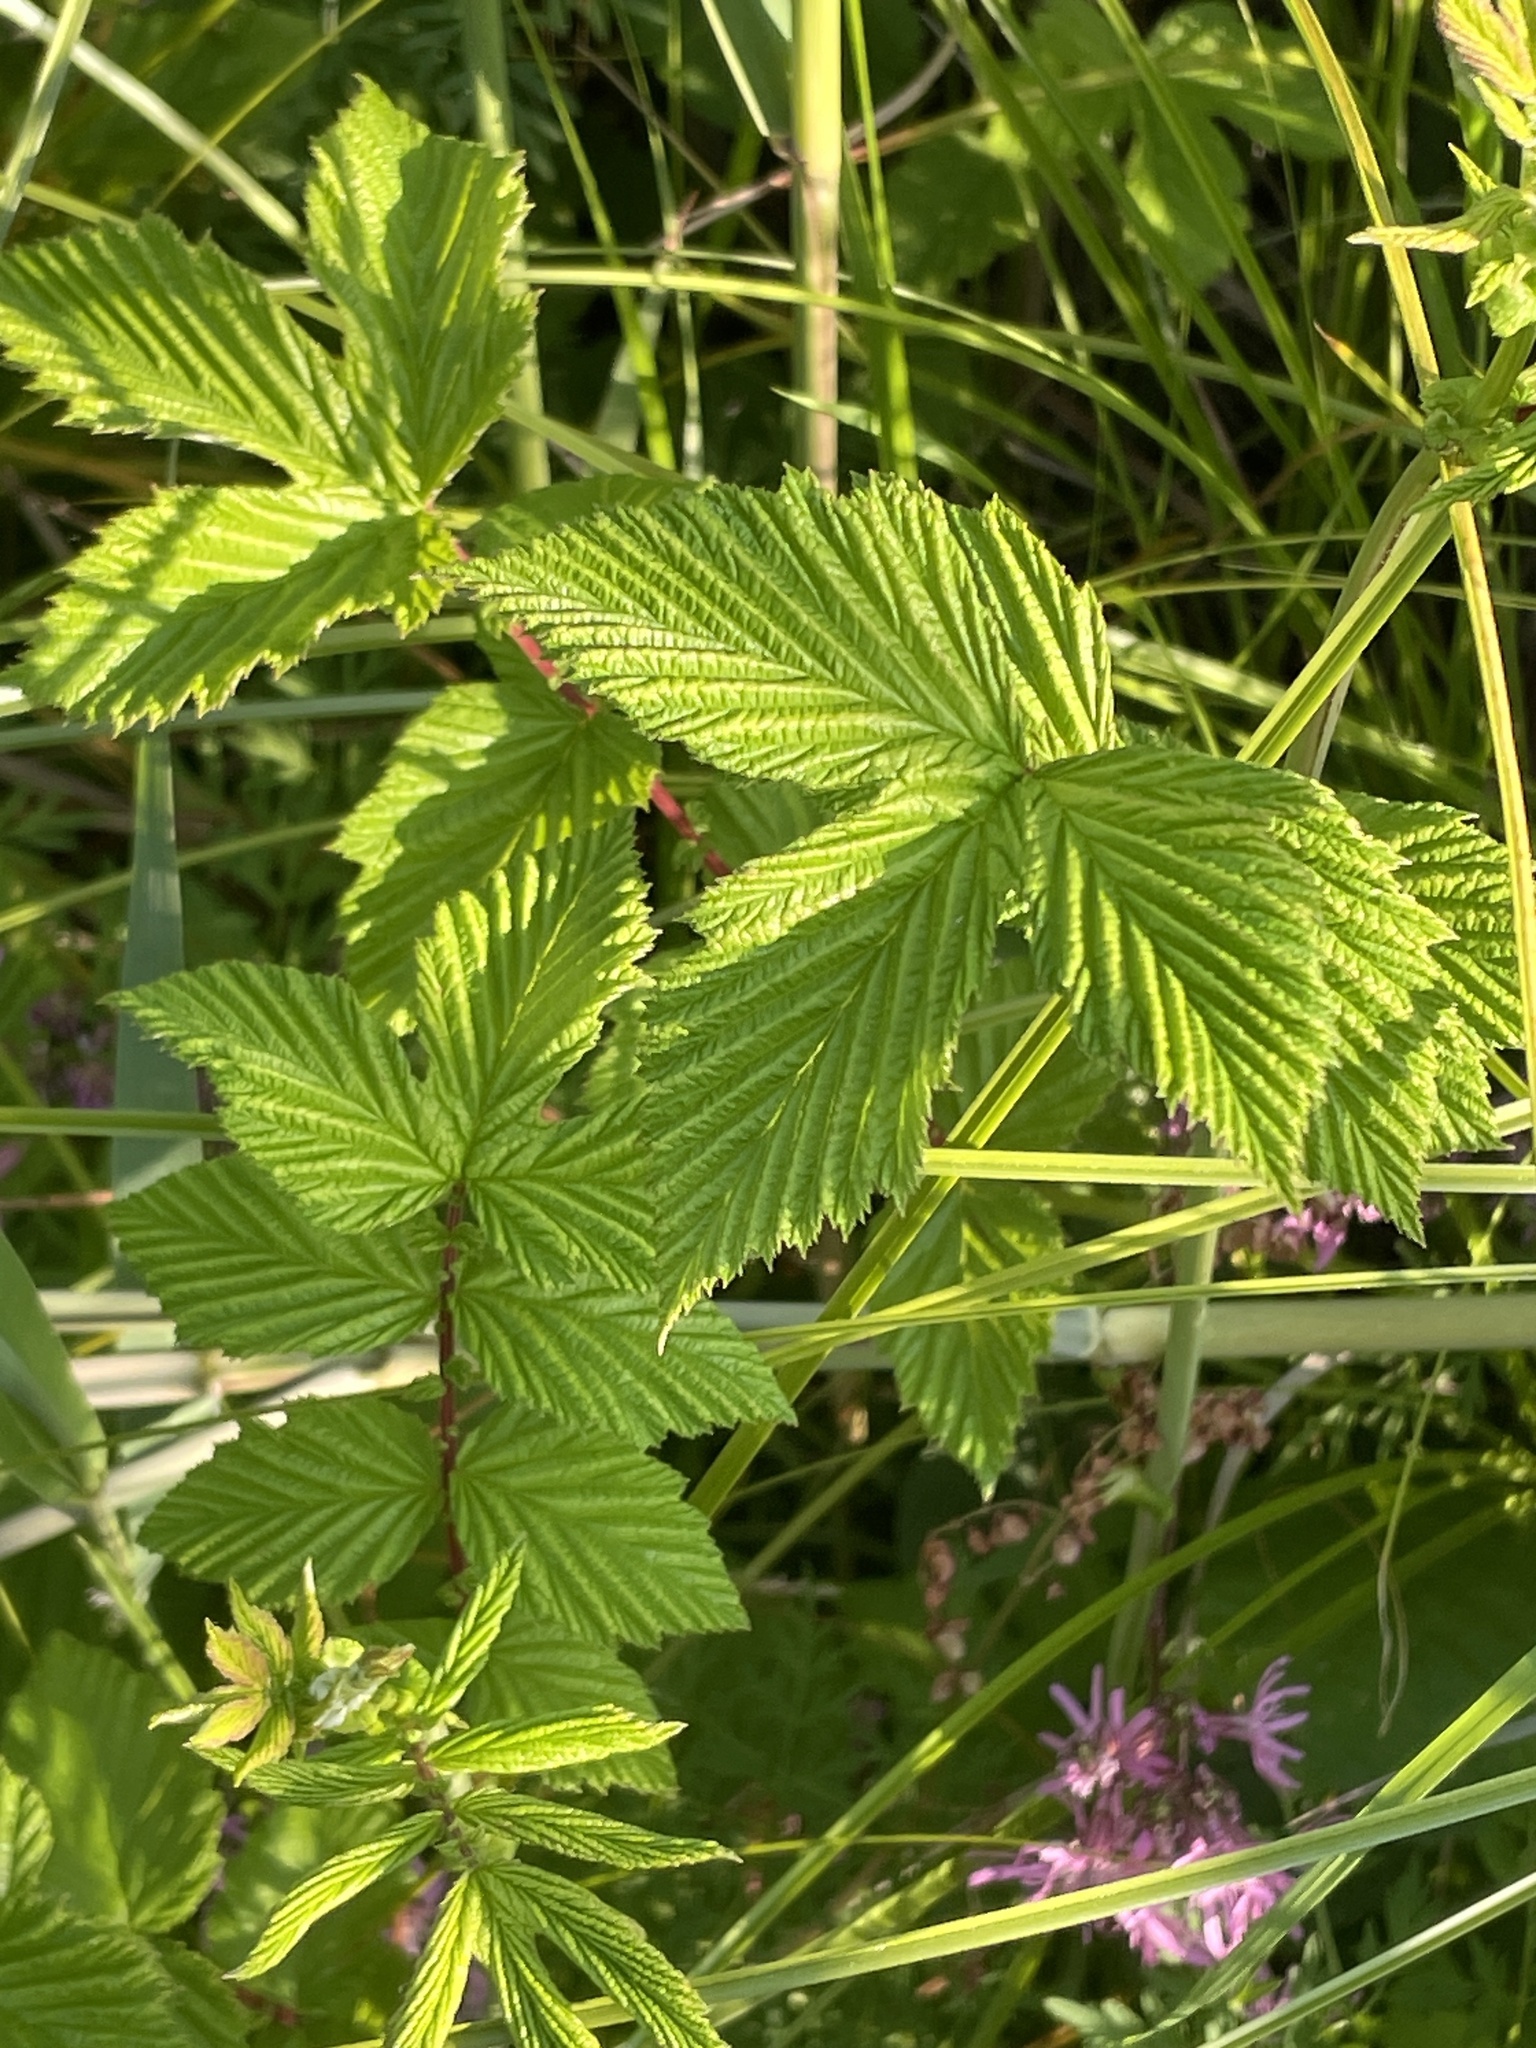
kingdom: Plantae
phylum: Tracheophyta
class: Magnoliopsida
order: Rosales
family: Rosaceae
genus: Filipendula
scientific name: Filipendula ulmaria
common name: Meadowsweet
